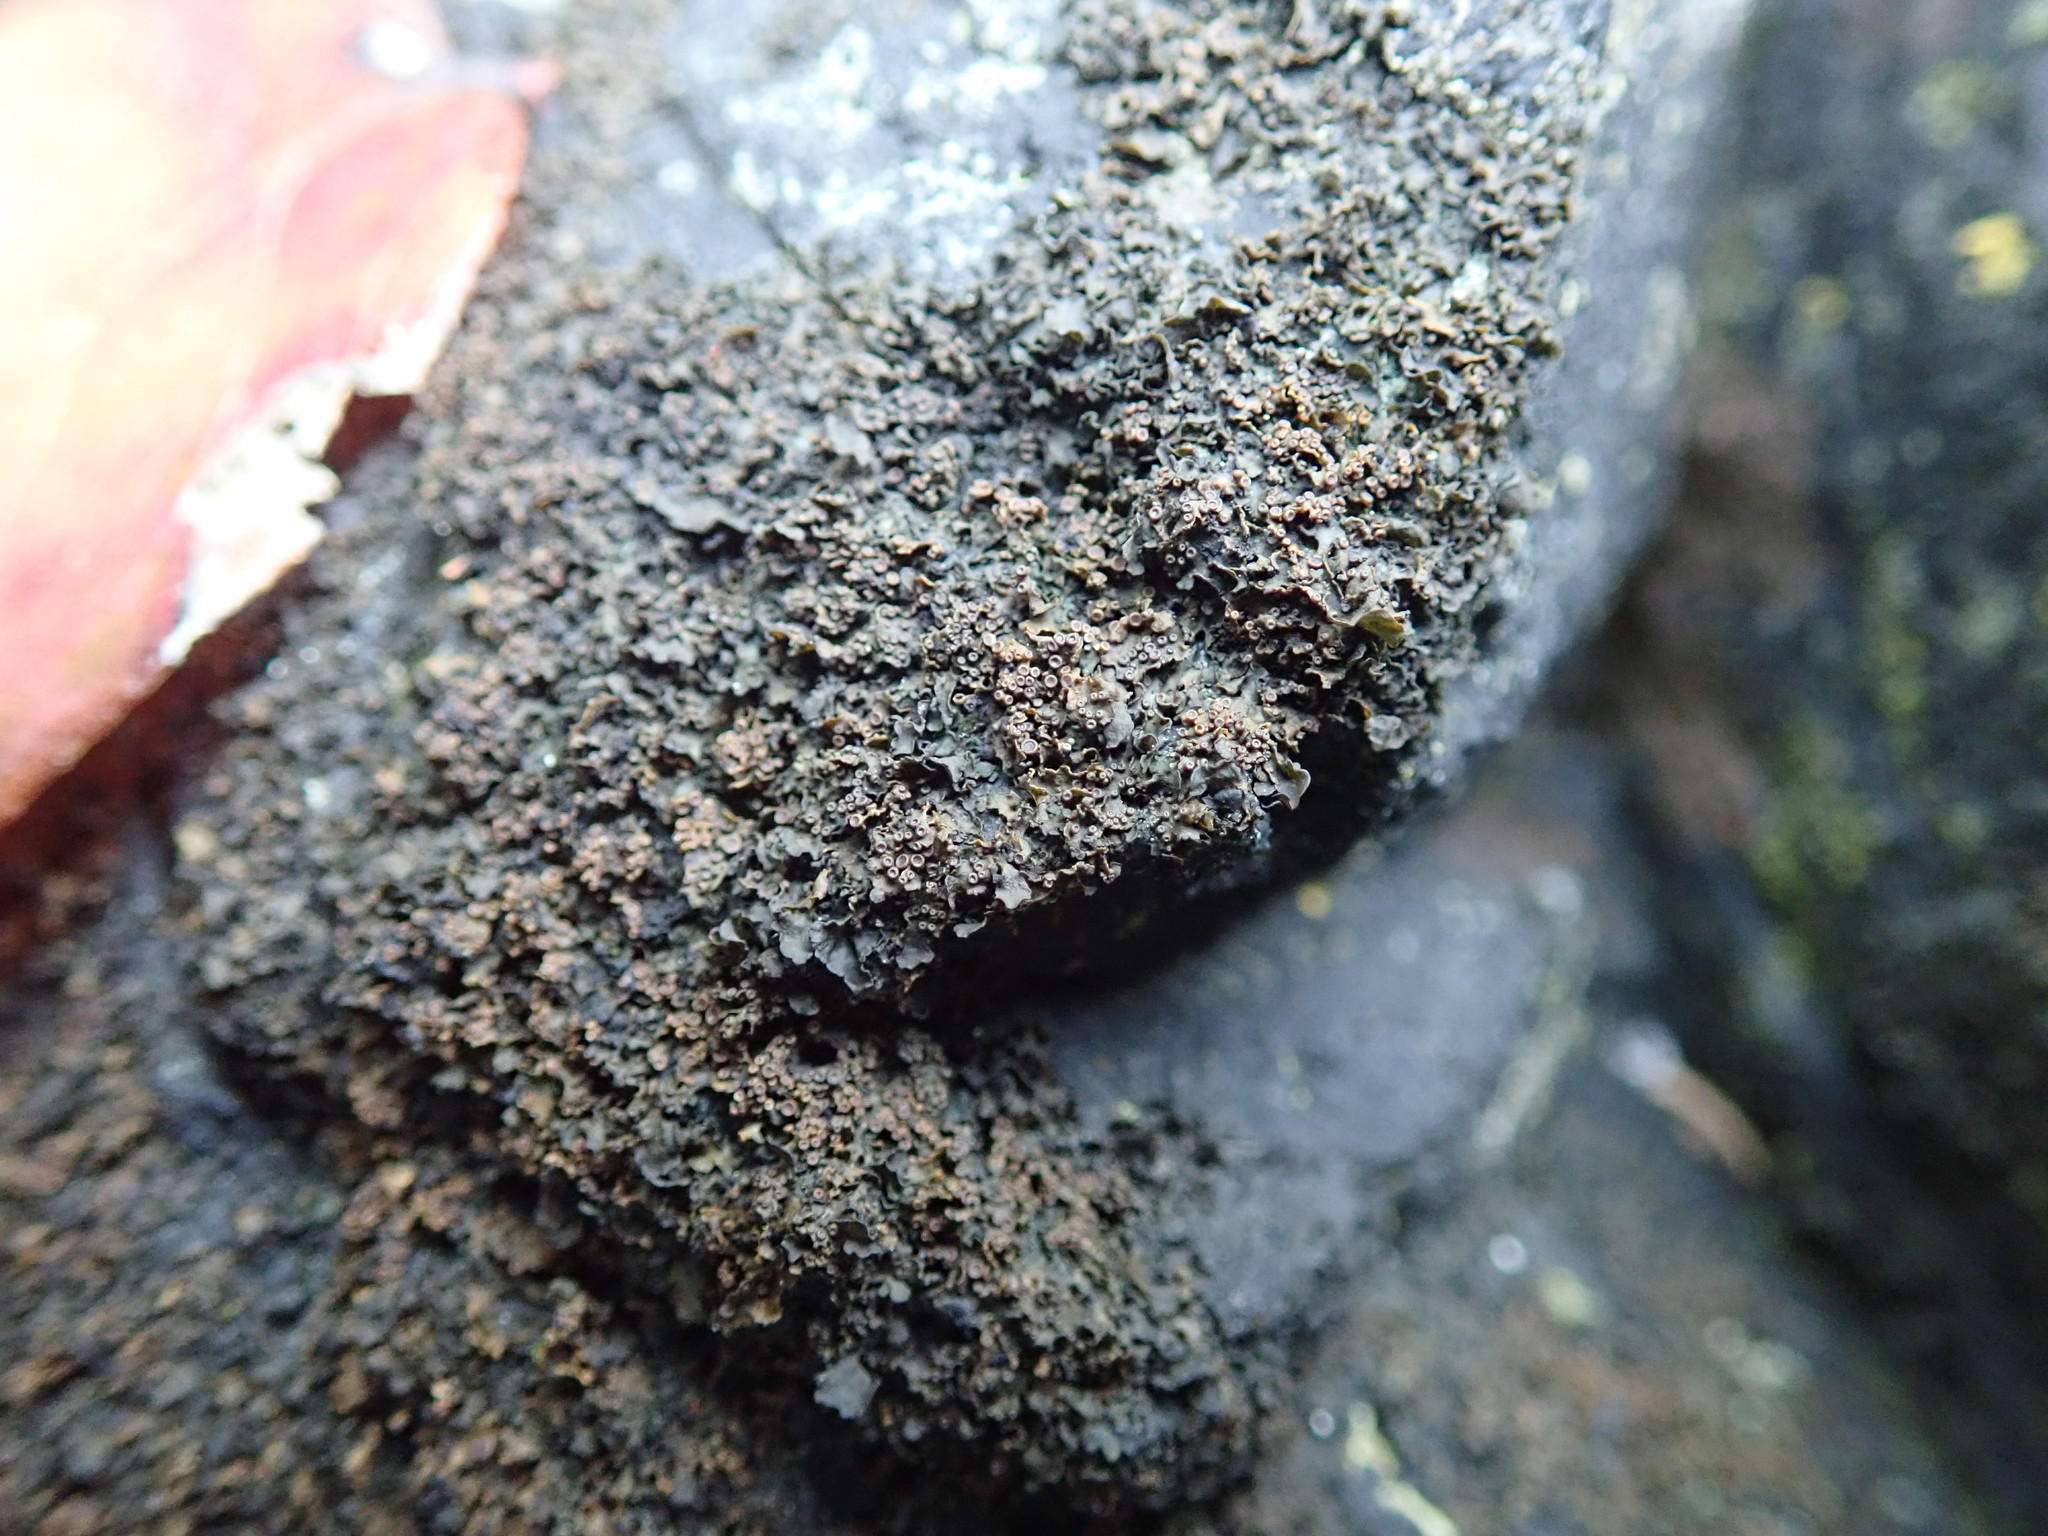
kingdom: Fungi
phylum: Ascomycota
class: Lecanoromycetes
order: Peltigerales
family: Collemataceae
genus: Blennothallia
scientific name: Blennothallia fecunda
